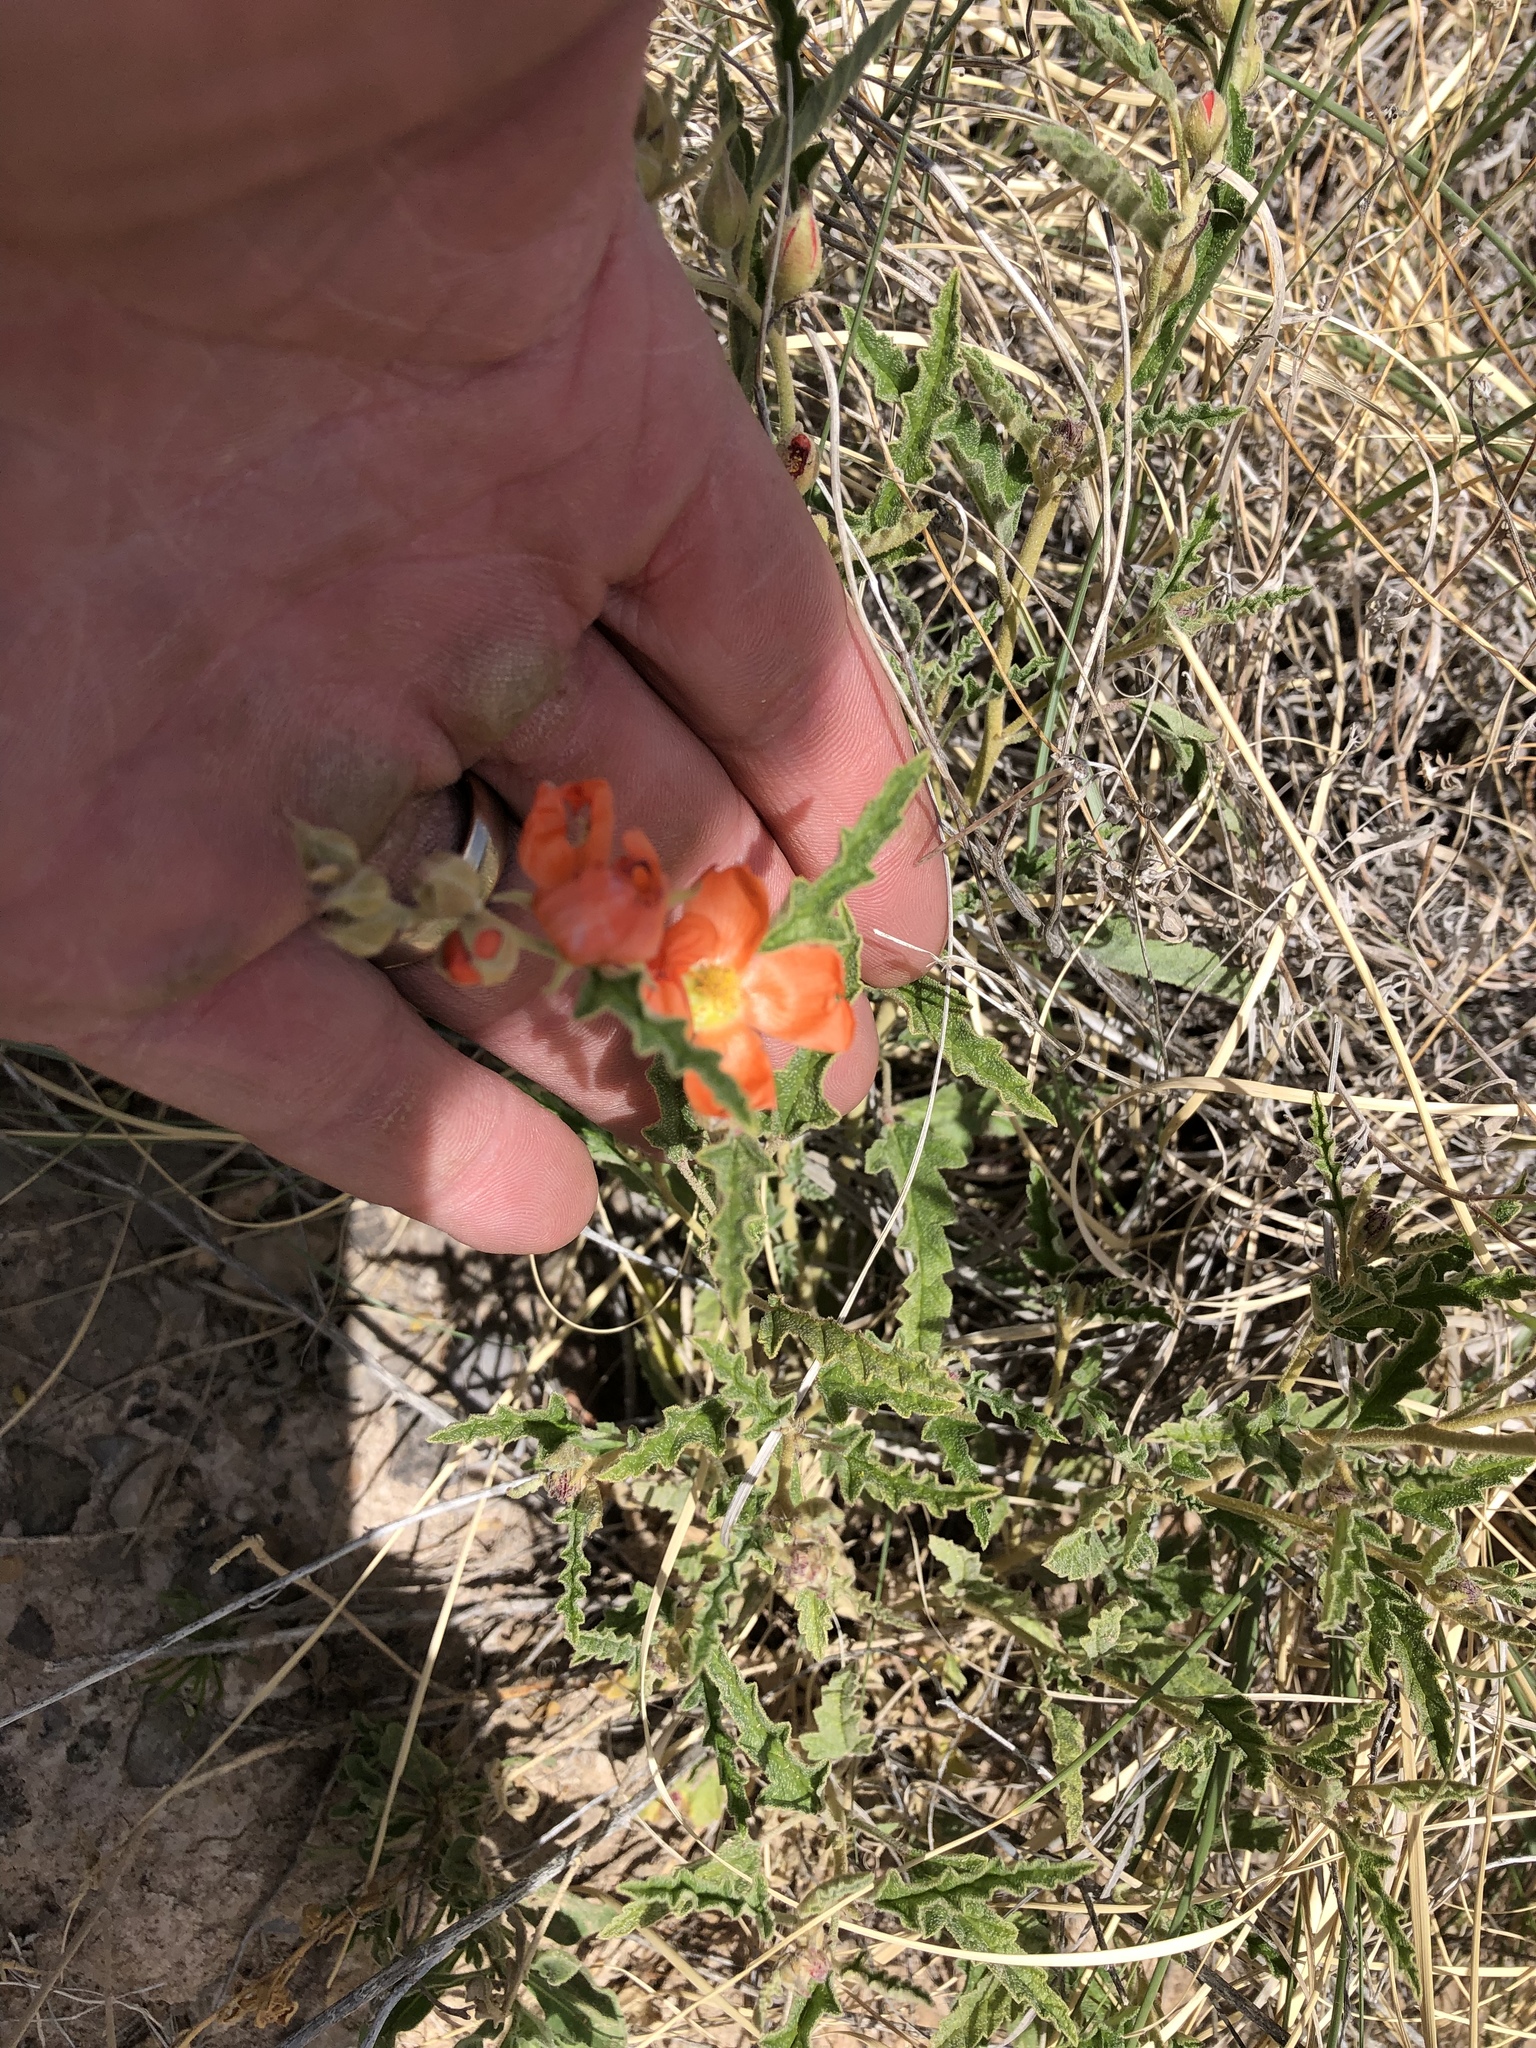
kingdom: Plantae
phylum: Tracheophyta
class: Magnoliopsida
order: Malvales
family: Malvaceae
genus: Sphaeralcea
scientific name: Sphaeralcea hastulata
